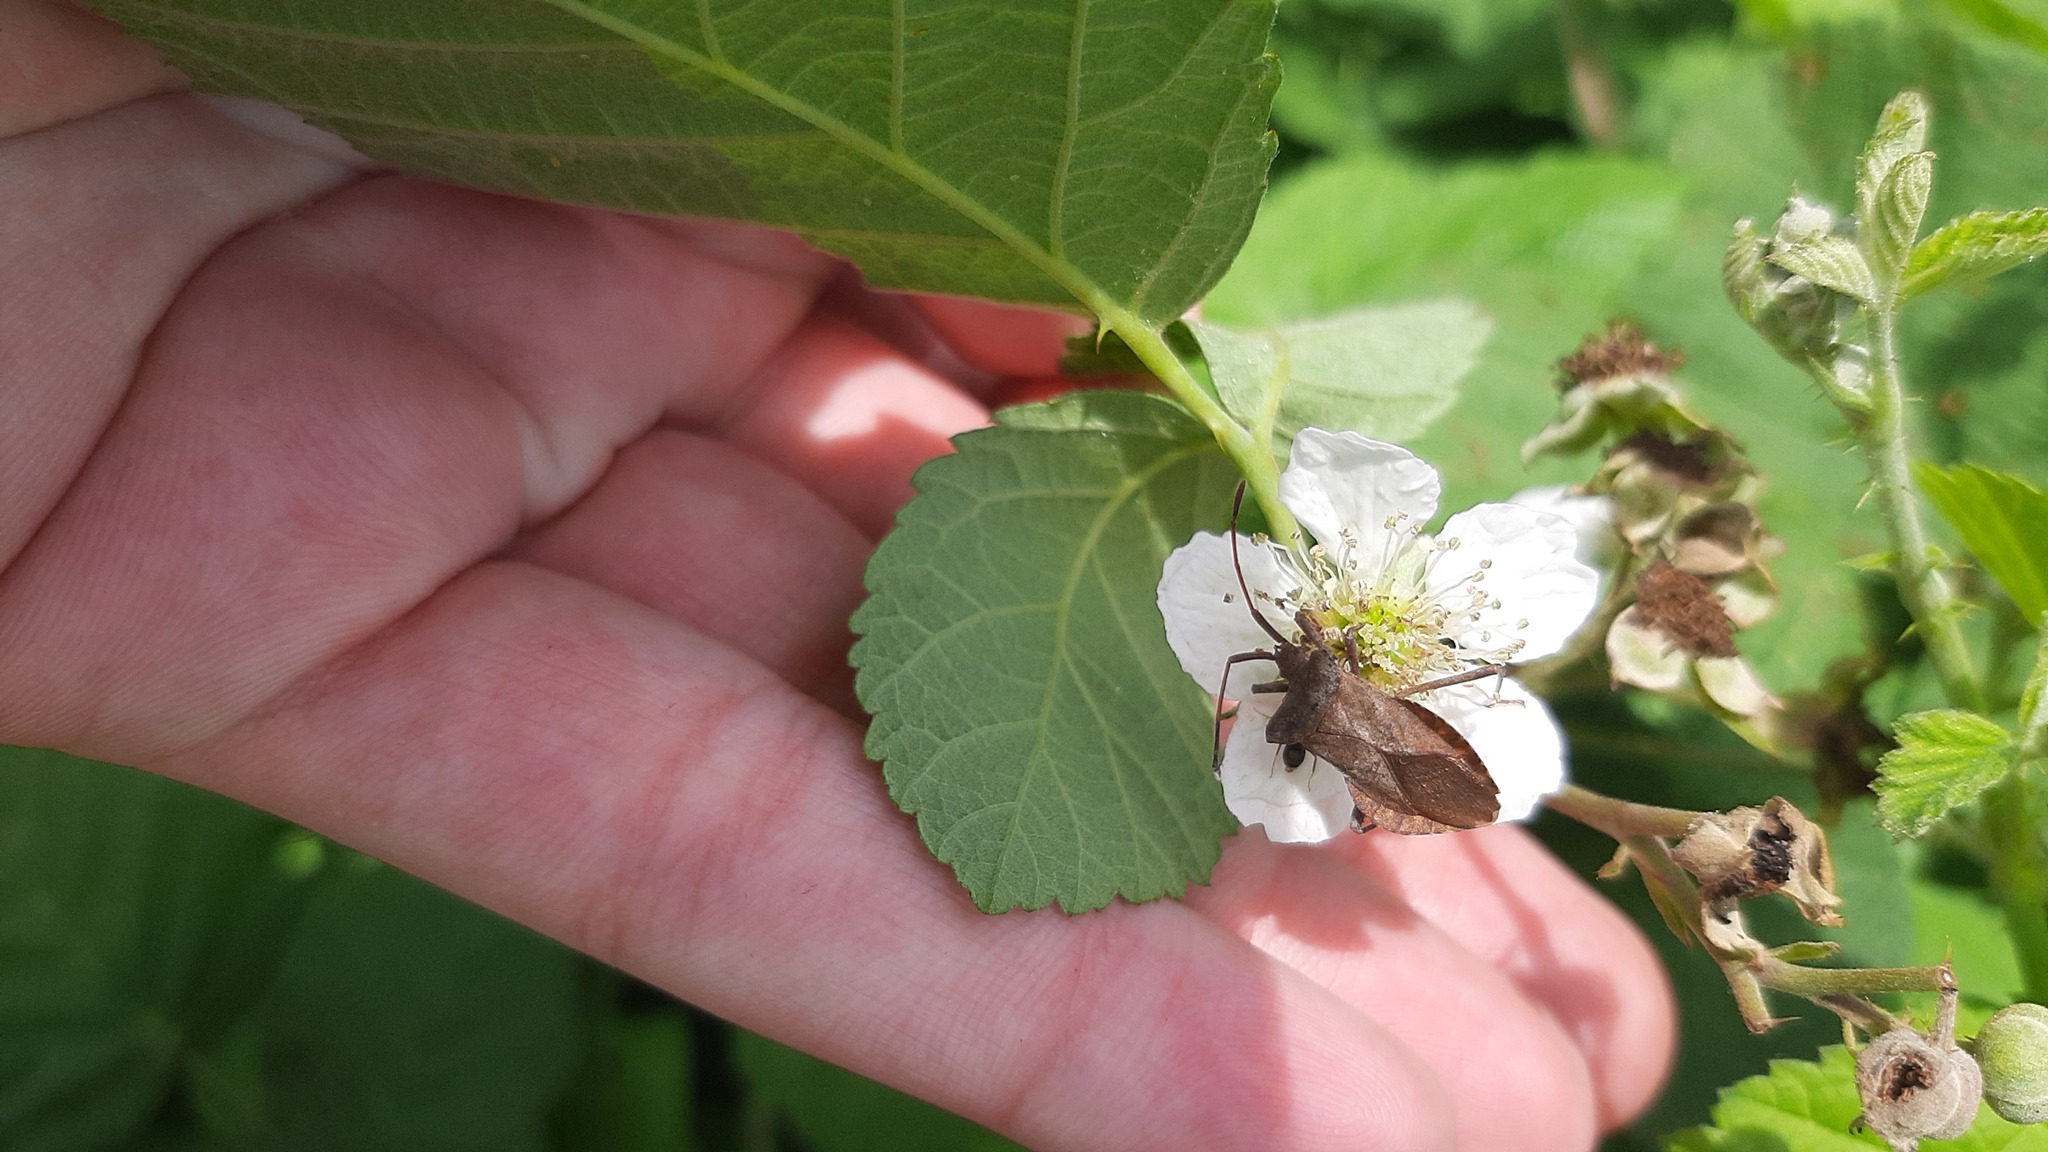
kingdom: Animalia
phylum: Arthropoda
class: Insecta
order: Hemiptera
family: Coreidae
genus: Coreus
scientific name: Coreus marginatus
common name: Dock bug
